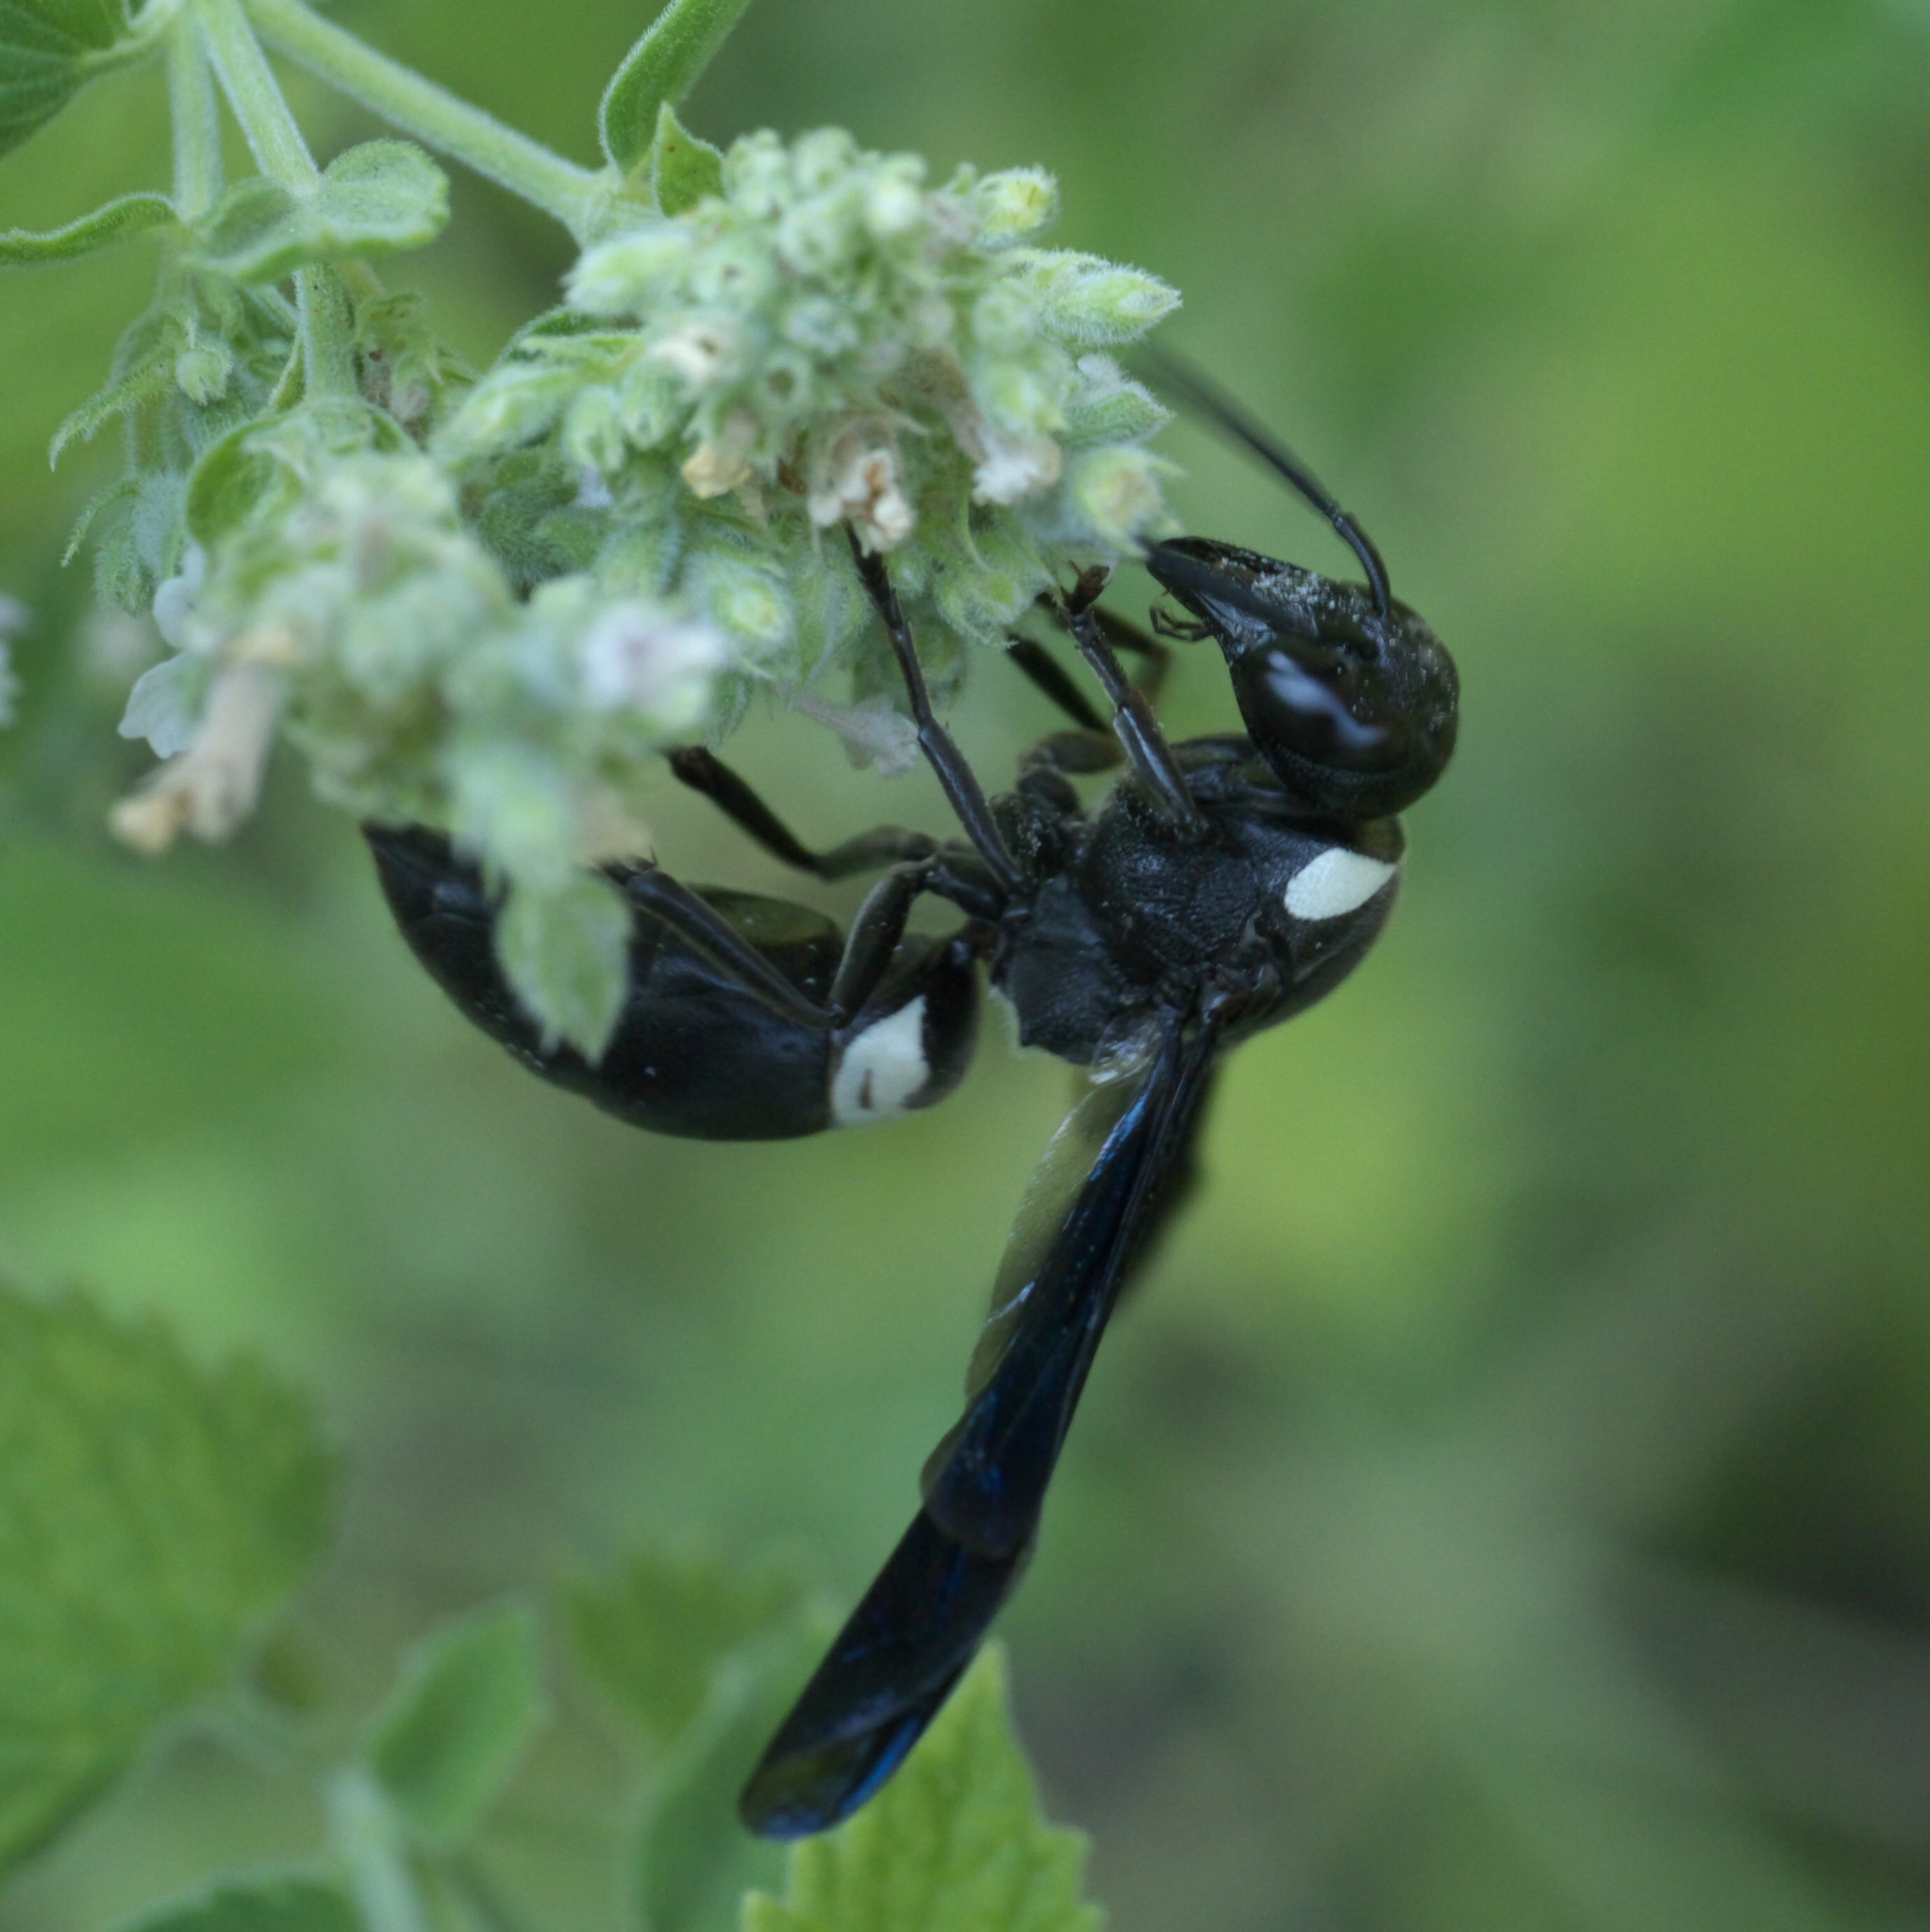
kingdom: Animalia
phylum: Arthropoda
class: Insecta
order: Hymenoptera
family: Eumenidae
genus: Monobia
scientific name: Monobia quadridens
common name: Four-toothed mason wasp
